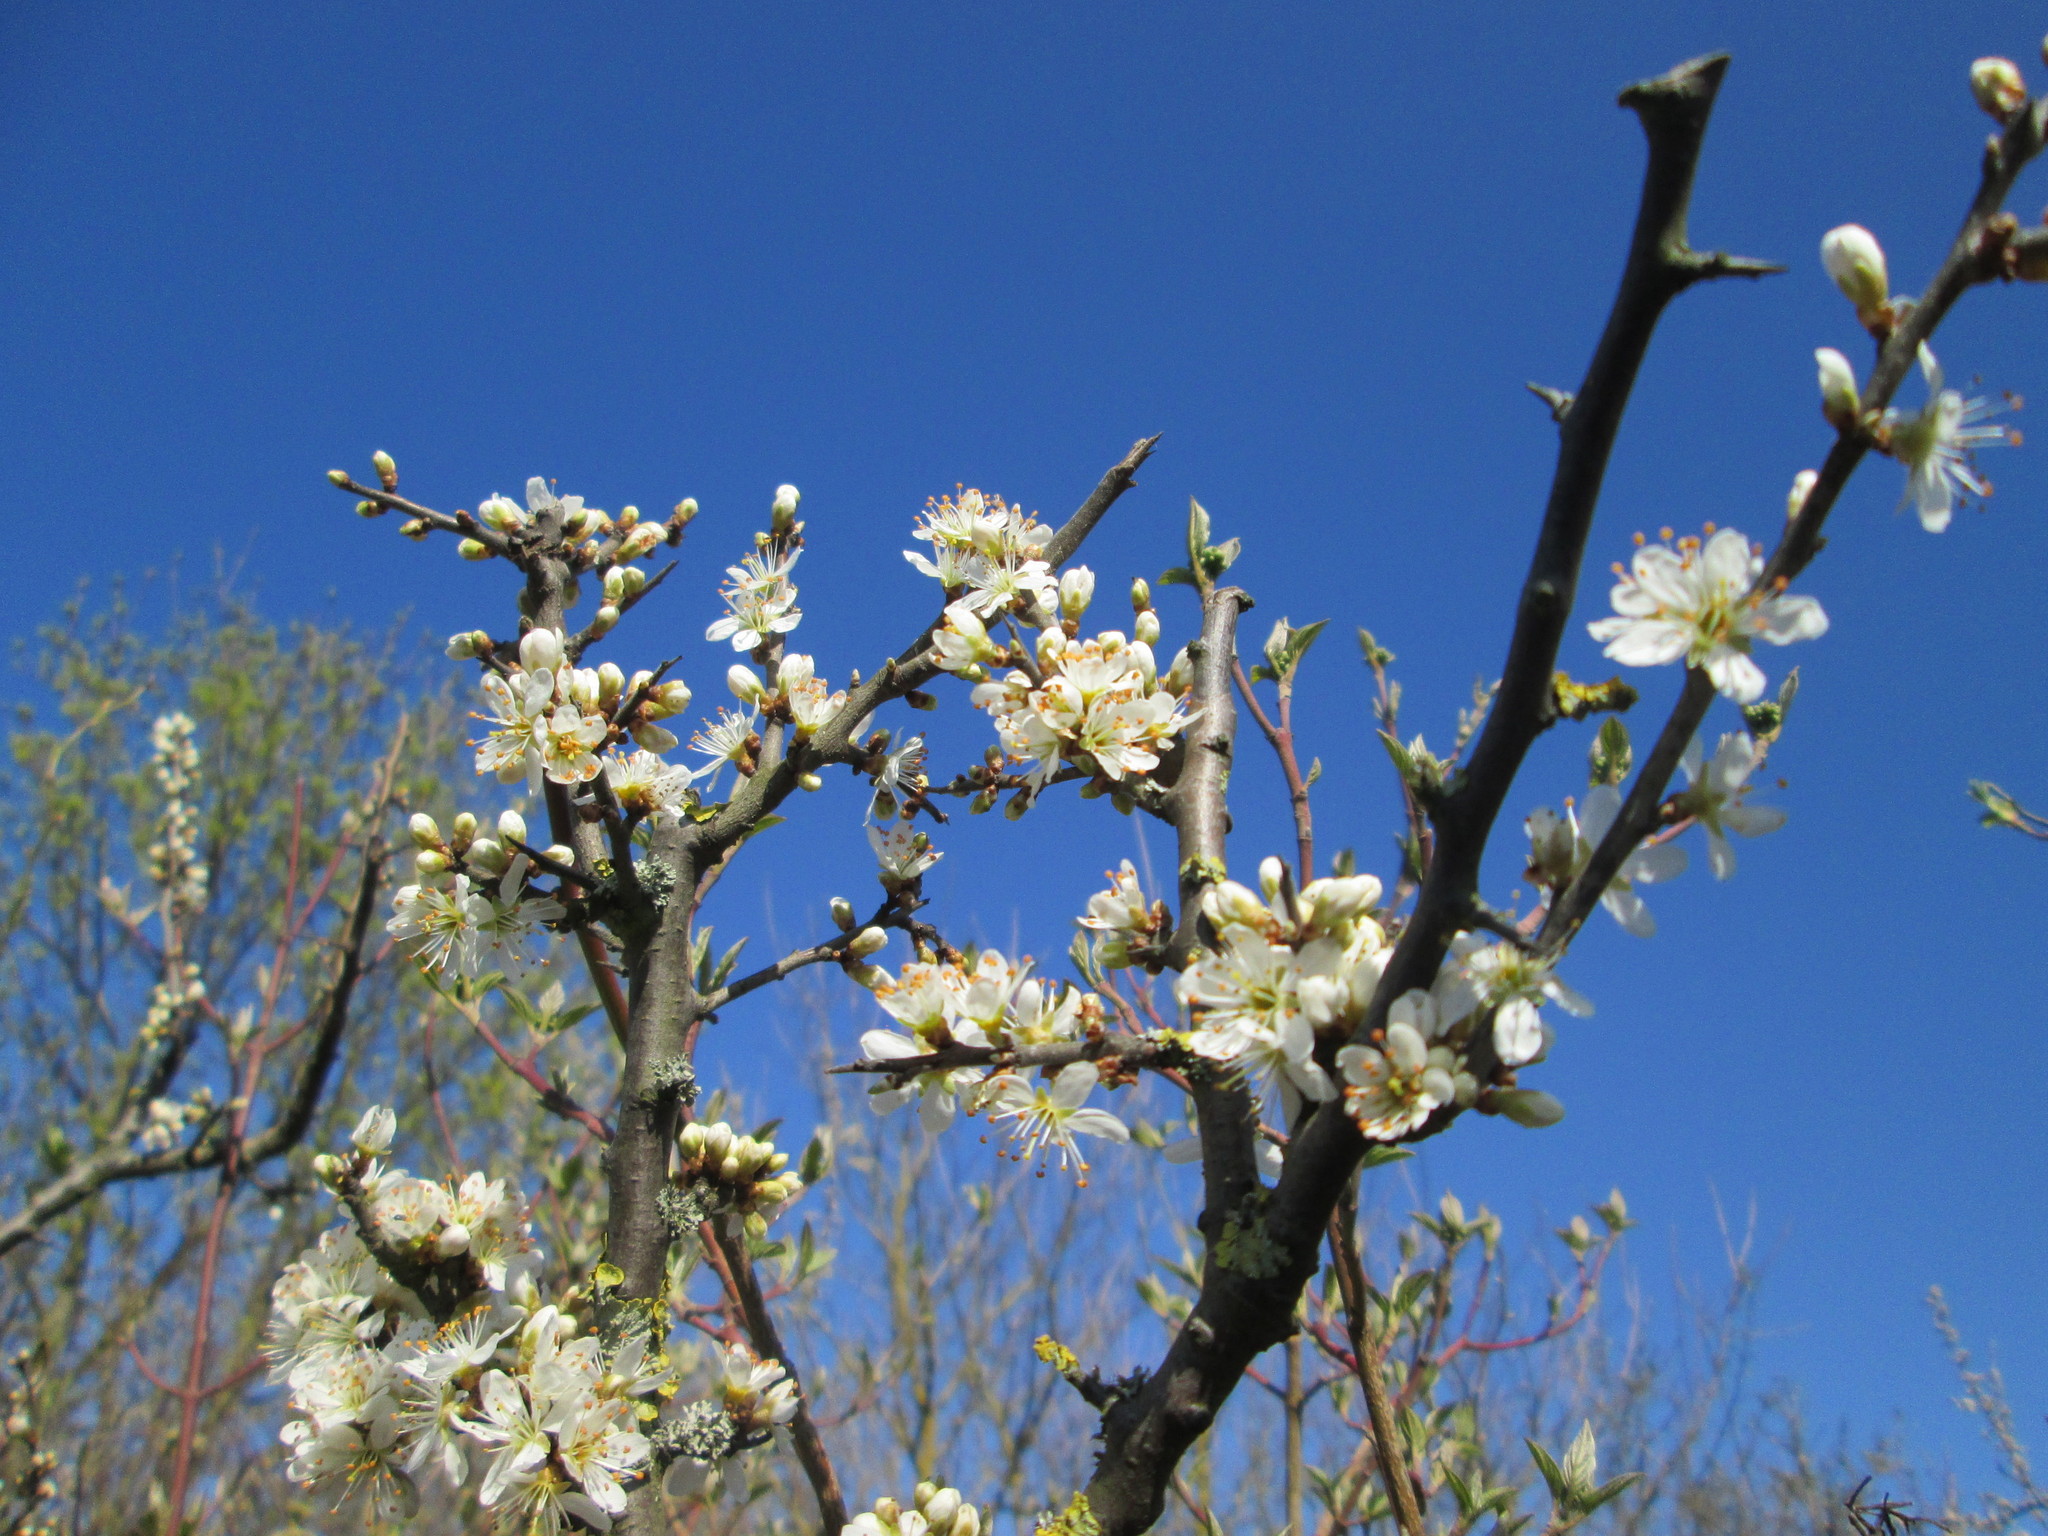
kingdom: Plantae
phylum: Tracheophyta
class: Magnoliopsida
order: Rosales
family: Rosaceae
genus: Prunus
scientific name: Prunus spinosa
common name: Blackthorn
